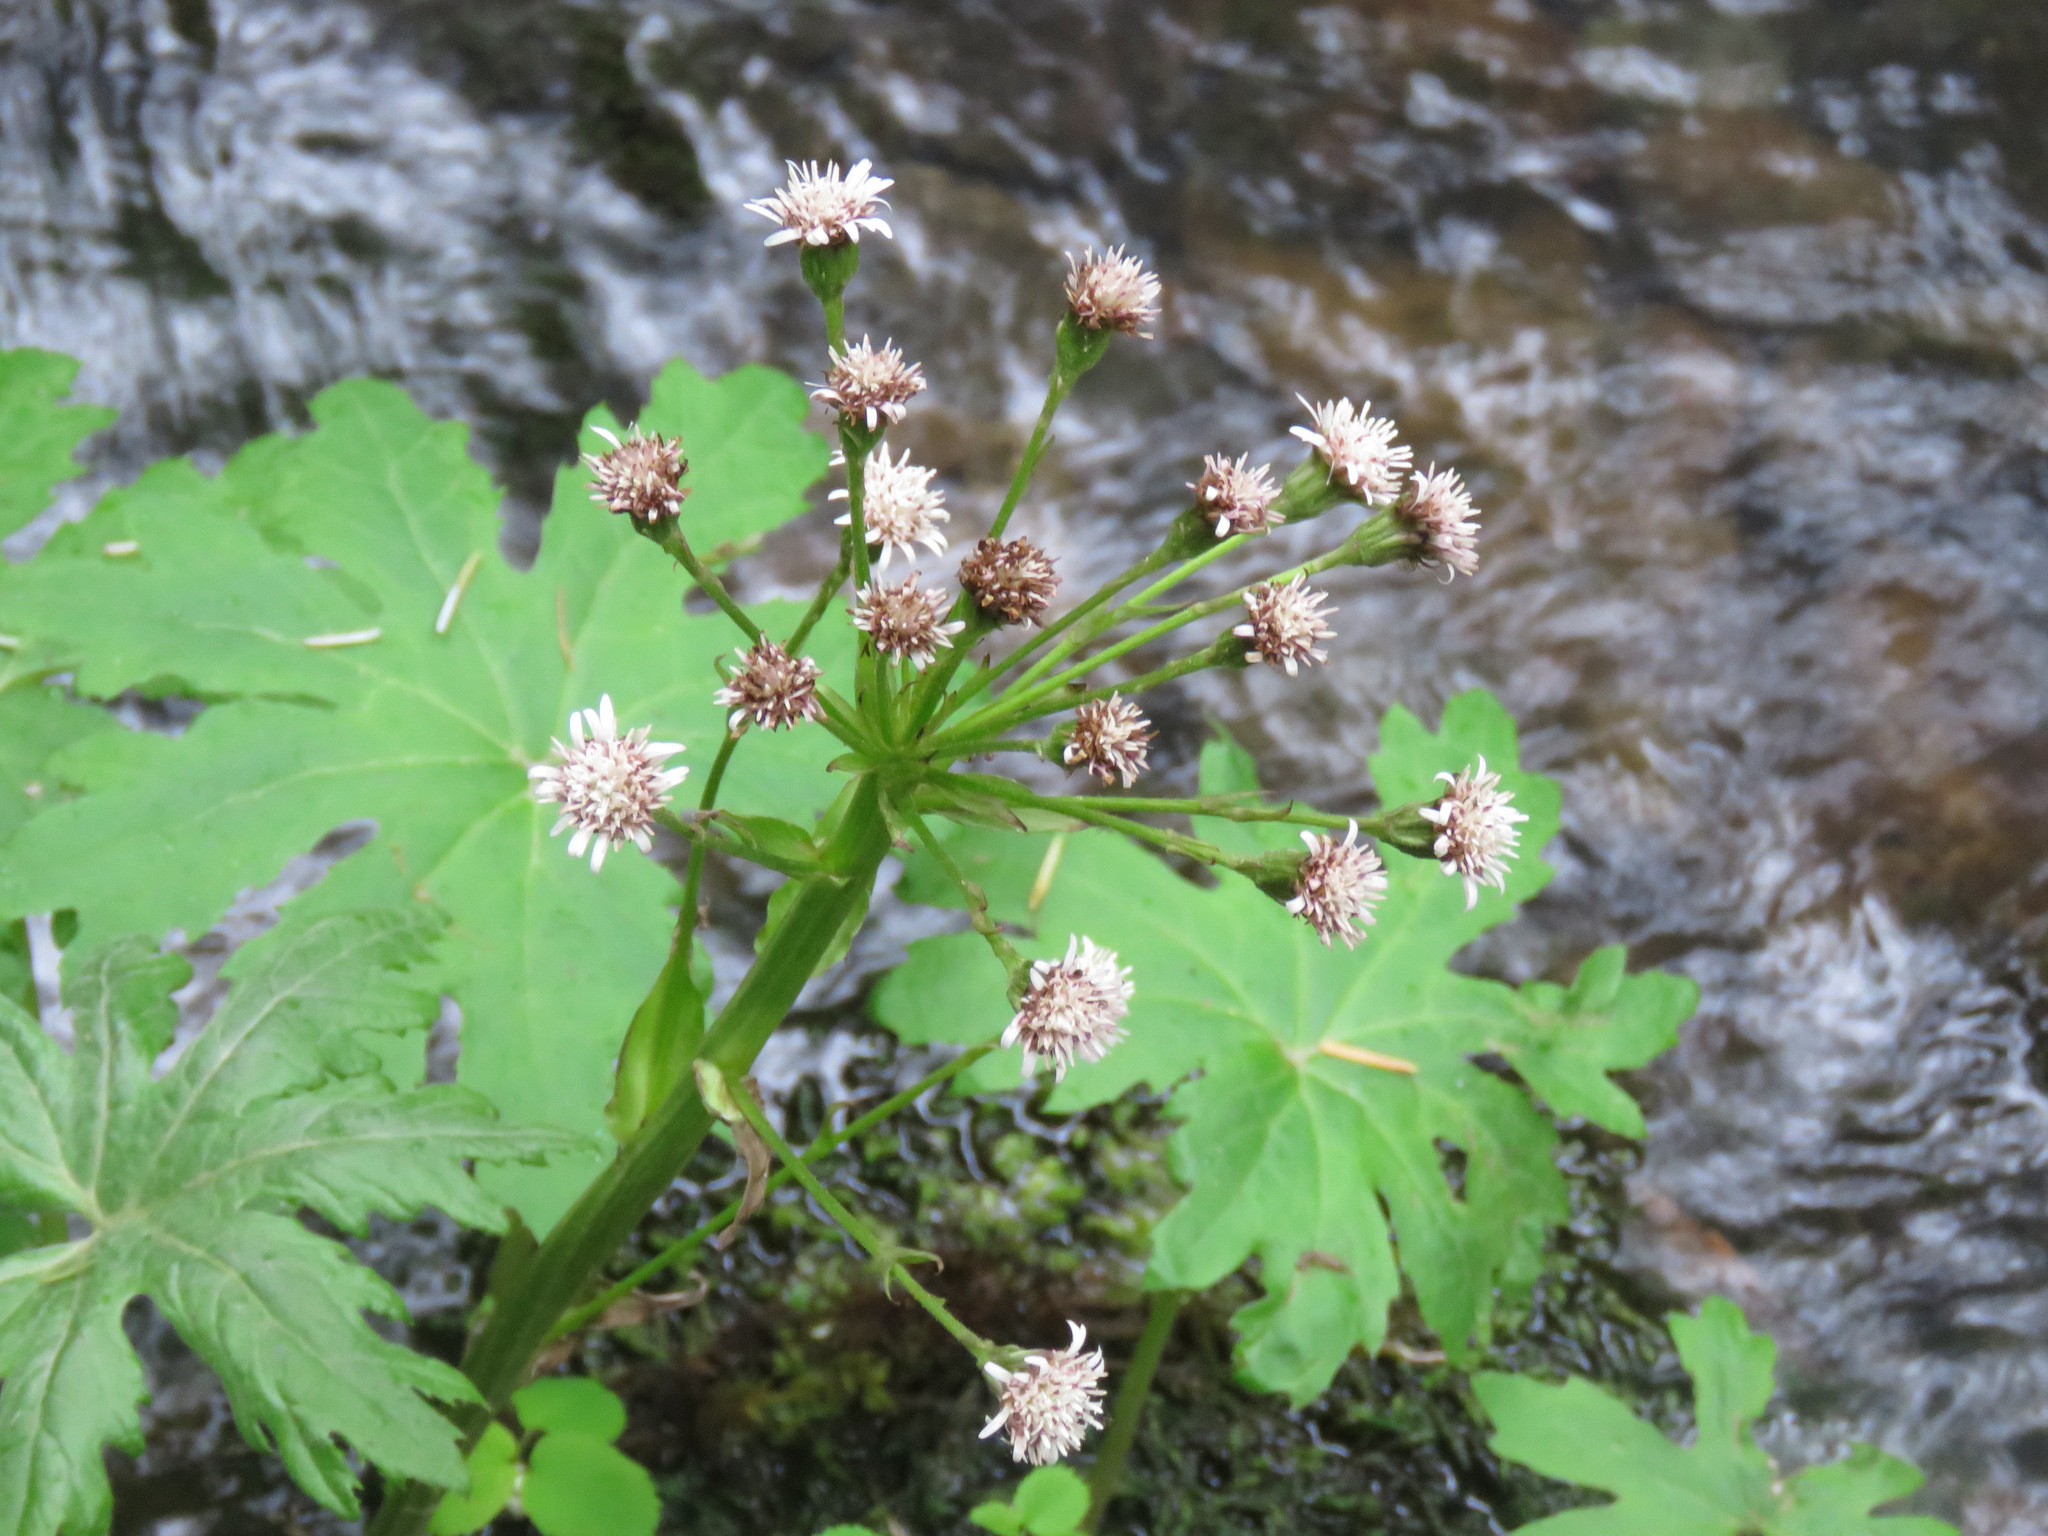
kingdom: Plantae
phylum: Tracheophyta
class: Magnoliopsida
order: Asterales
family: Asteraceae
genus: Petasites
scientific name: Petasites frigidus
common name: Arctic butterbur
